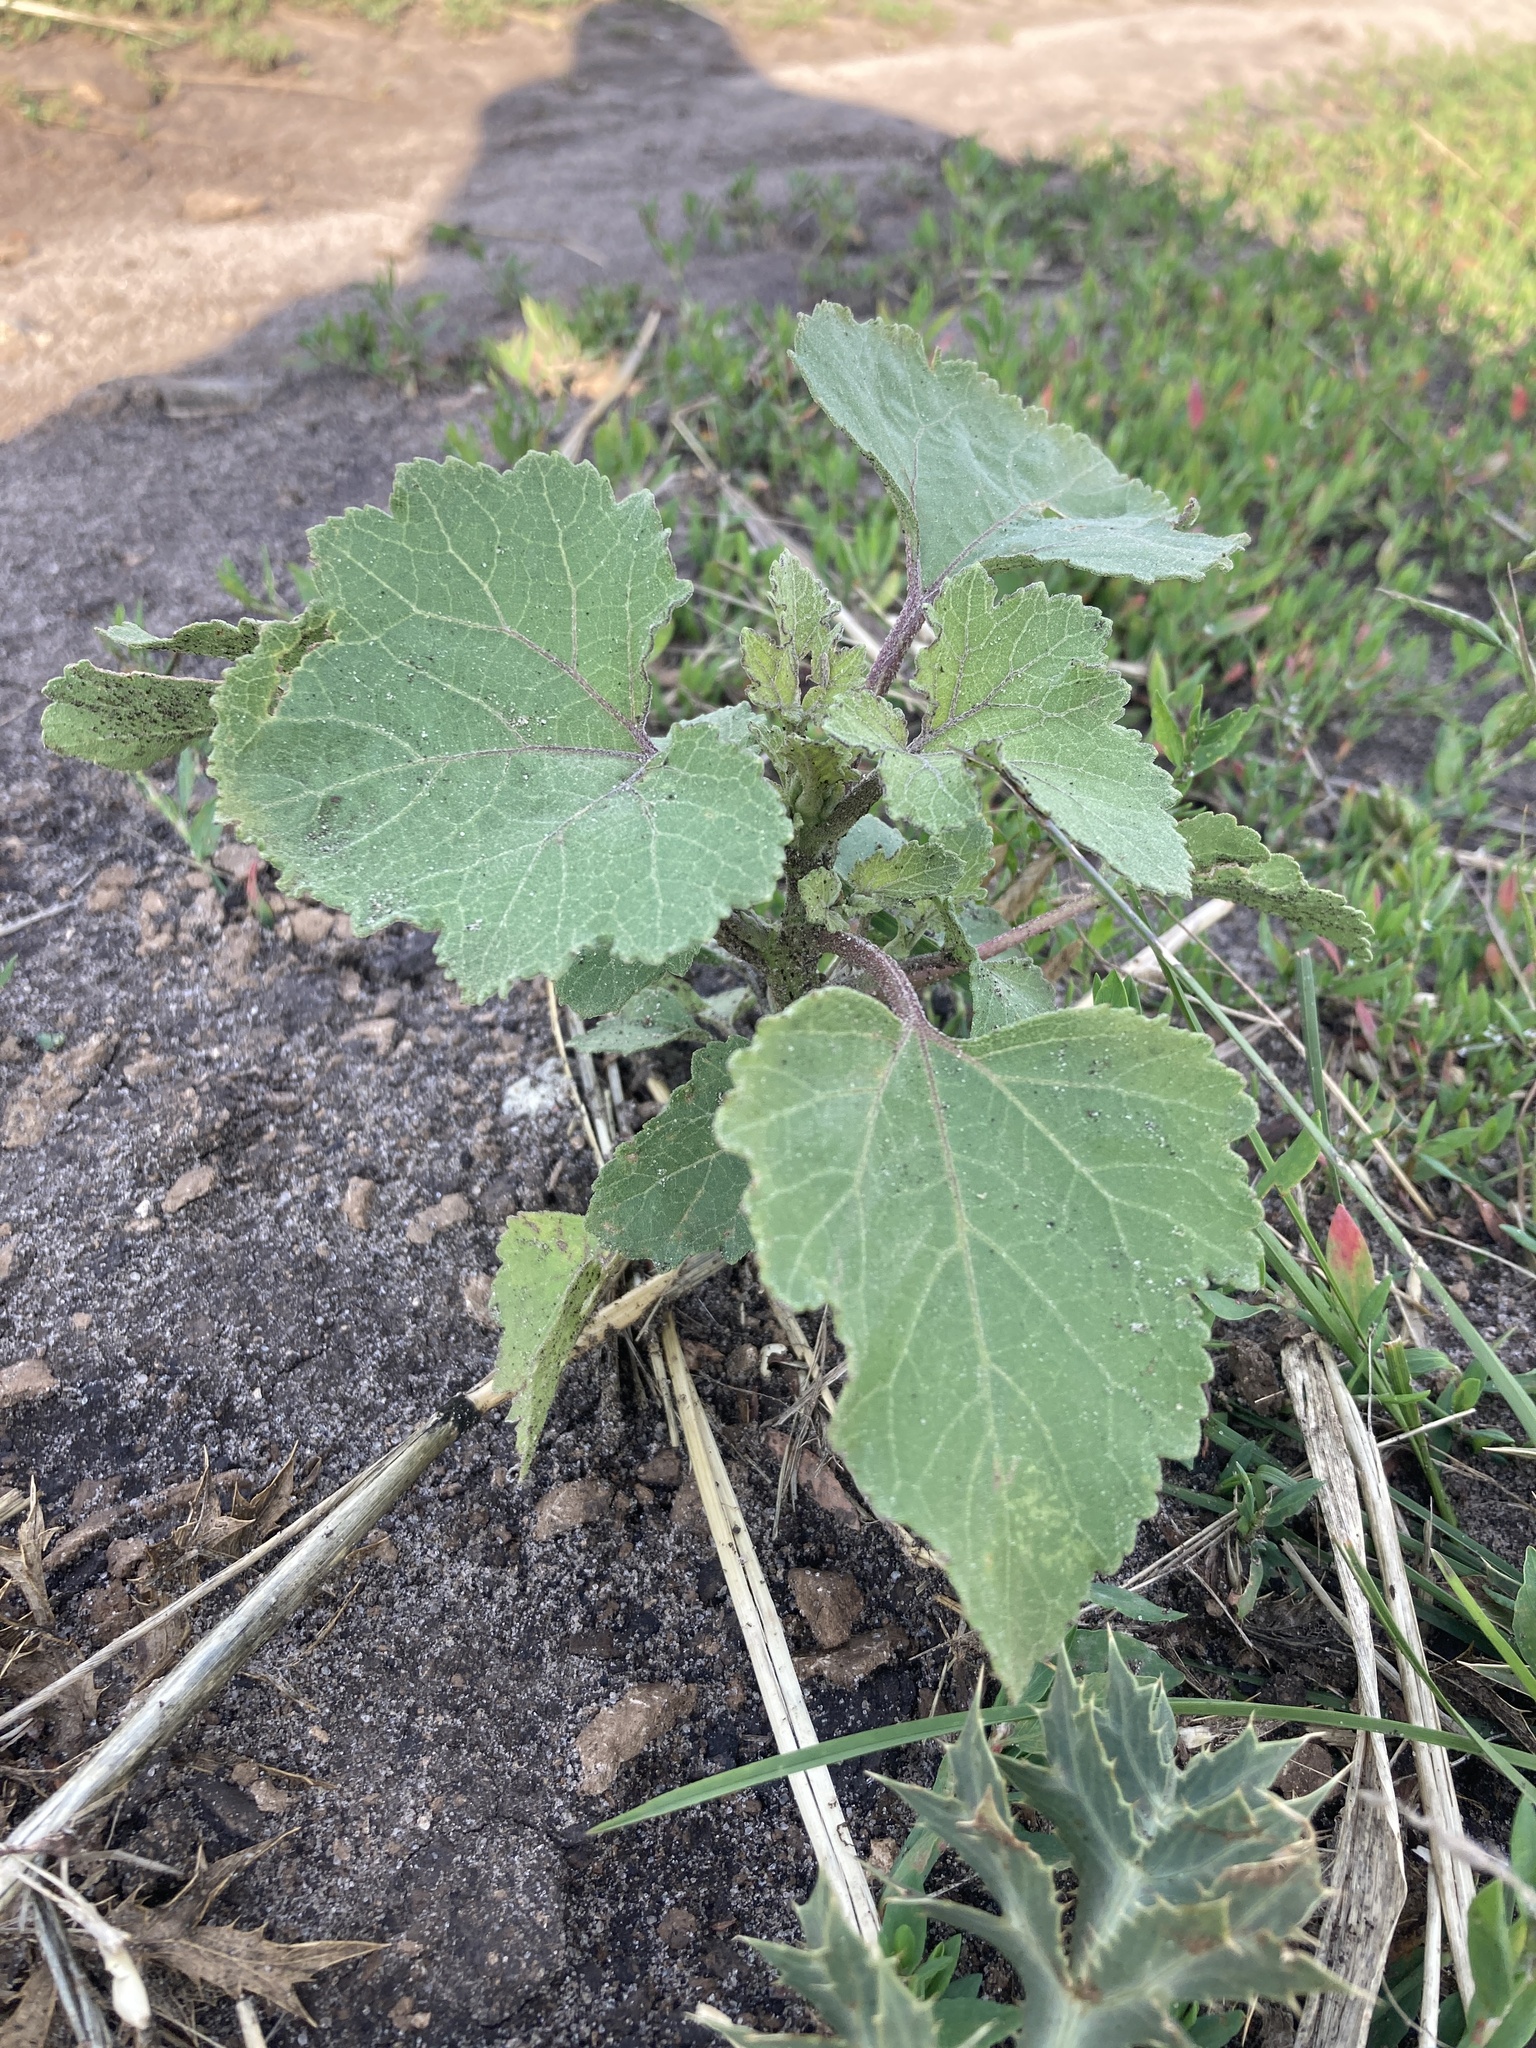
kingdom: Plantae
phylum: Tracheophyta
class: Magnoliopsida
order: Asterales
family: Asteraceae
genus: Xanthium
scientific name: Xanthium orientale
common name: Californian burr
